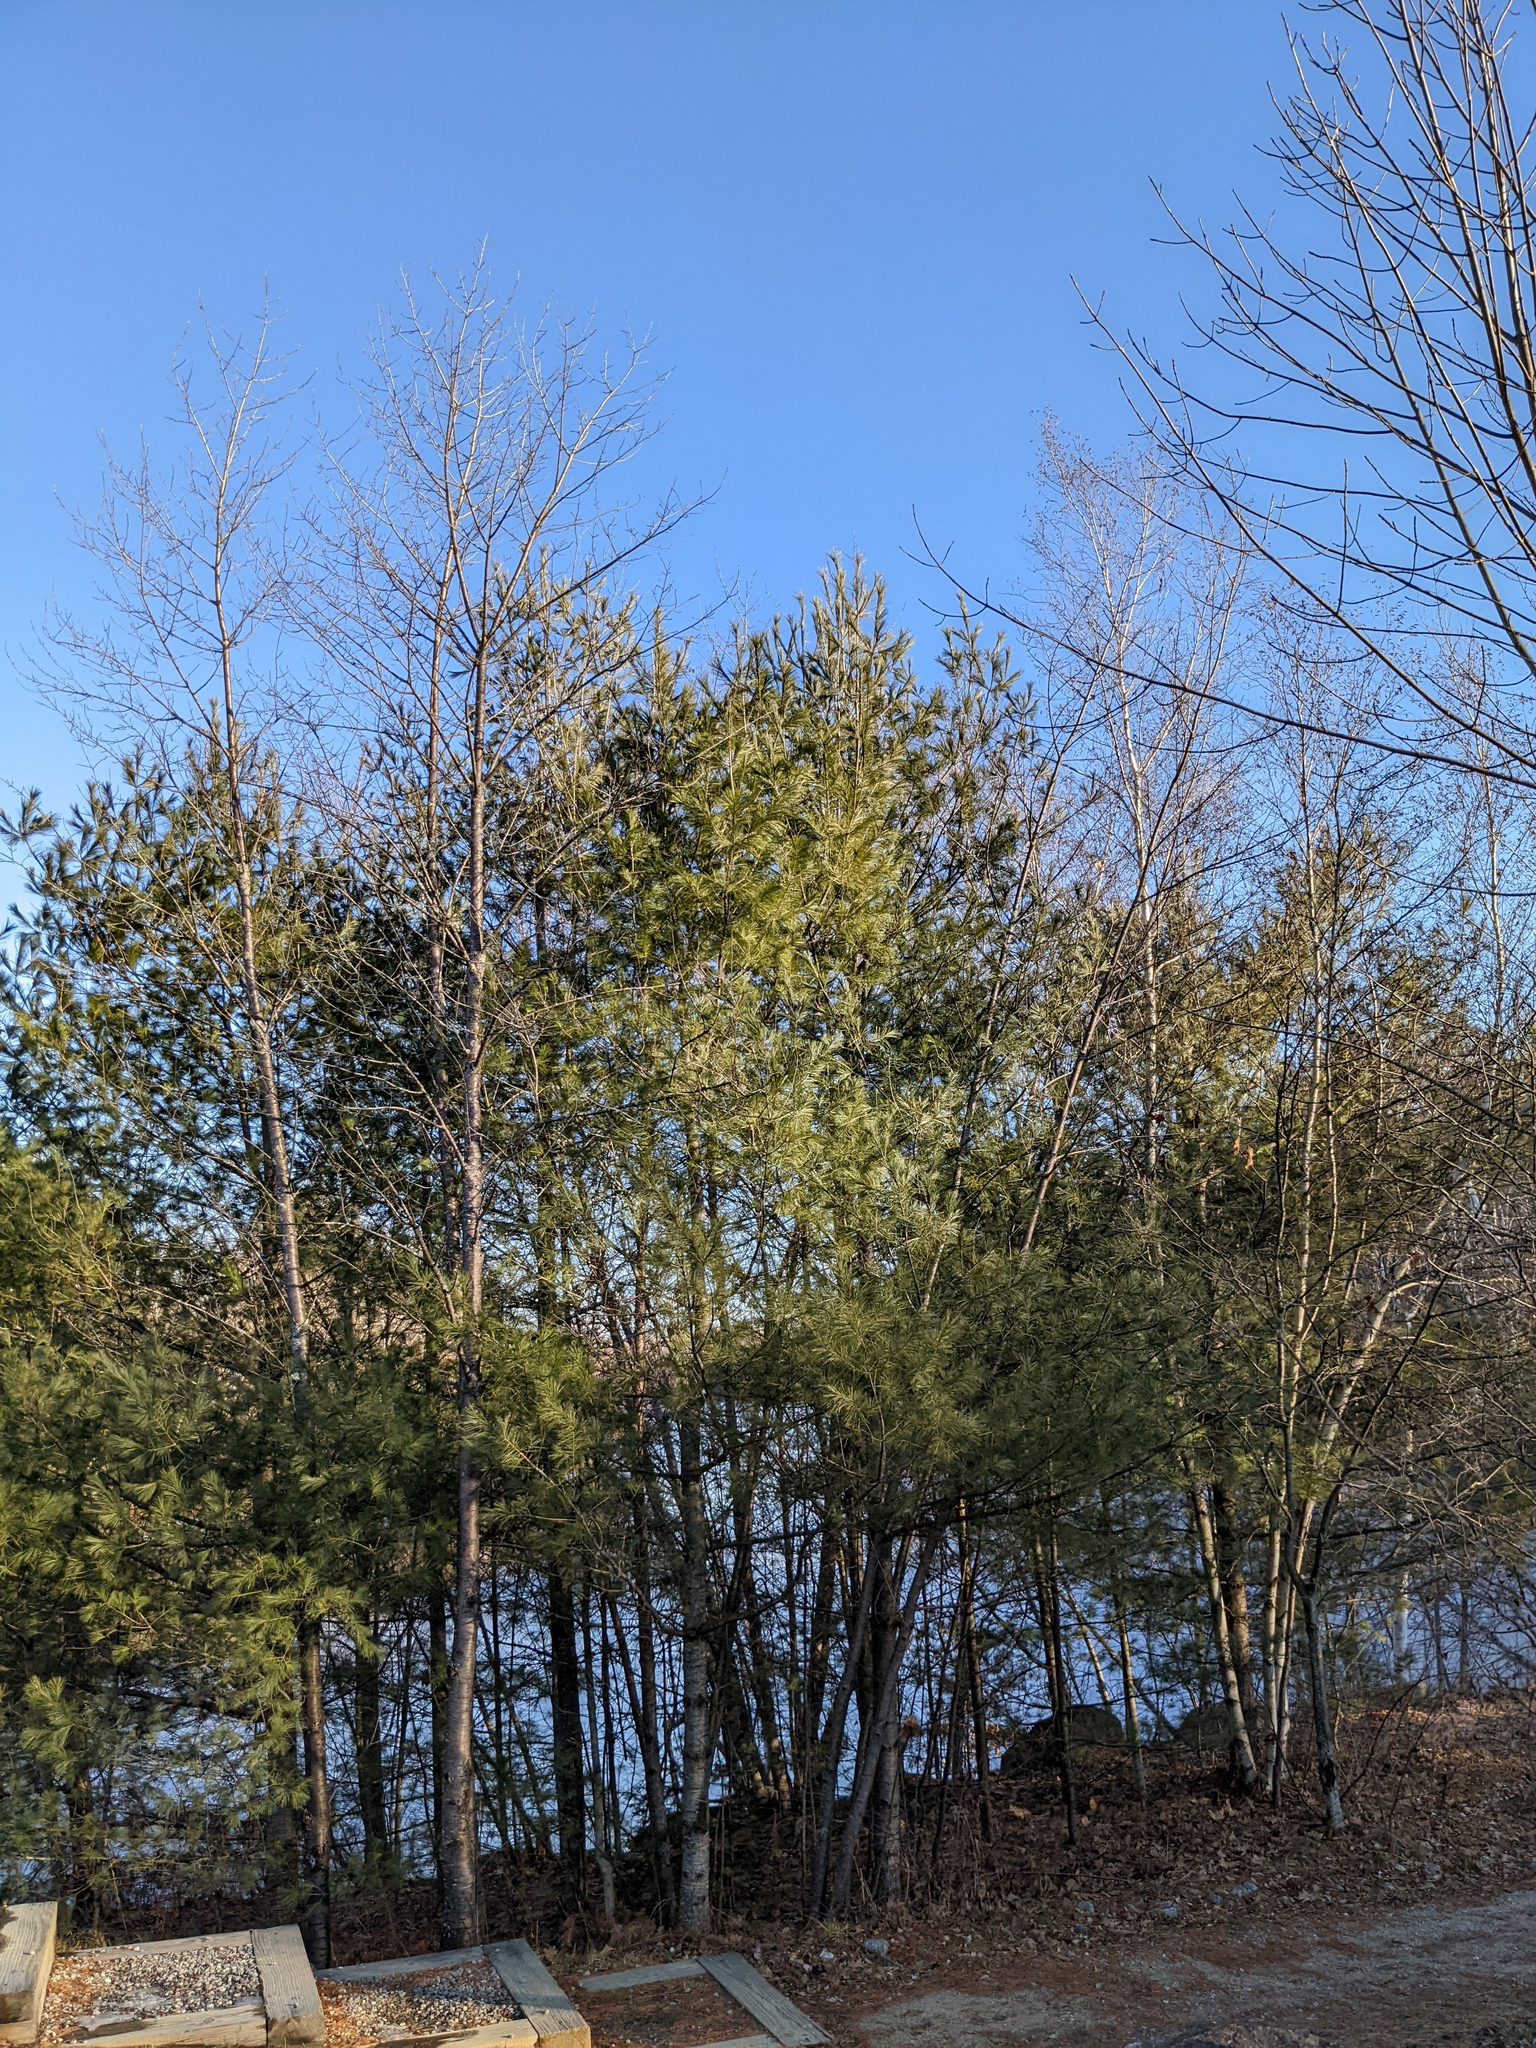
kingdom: Plantae
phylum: Tracheophyta
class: Pinopsida
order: Pinales
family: Pinaceae
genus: Pinus
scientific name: Pinus strobus
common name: Weymouth pine
